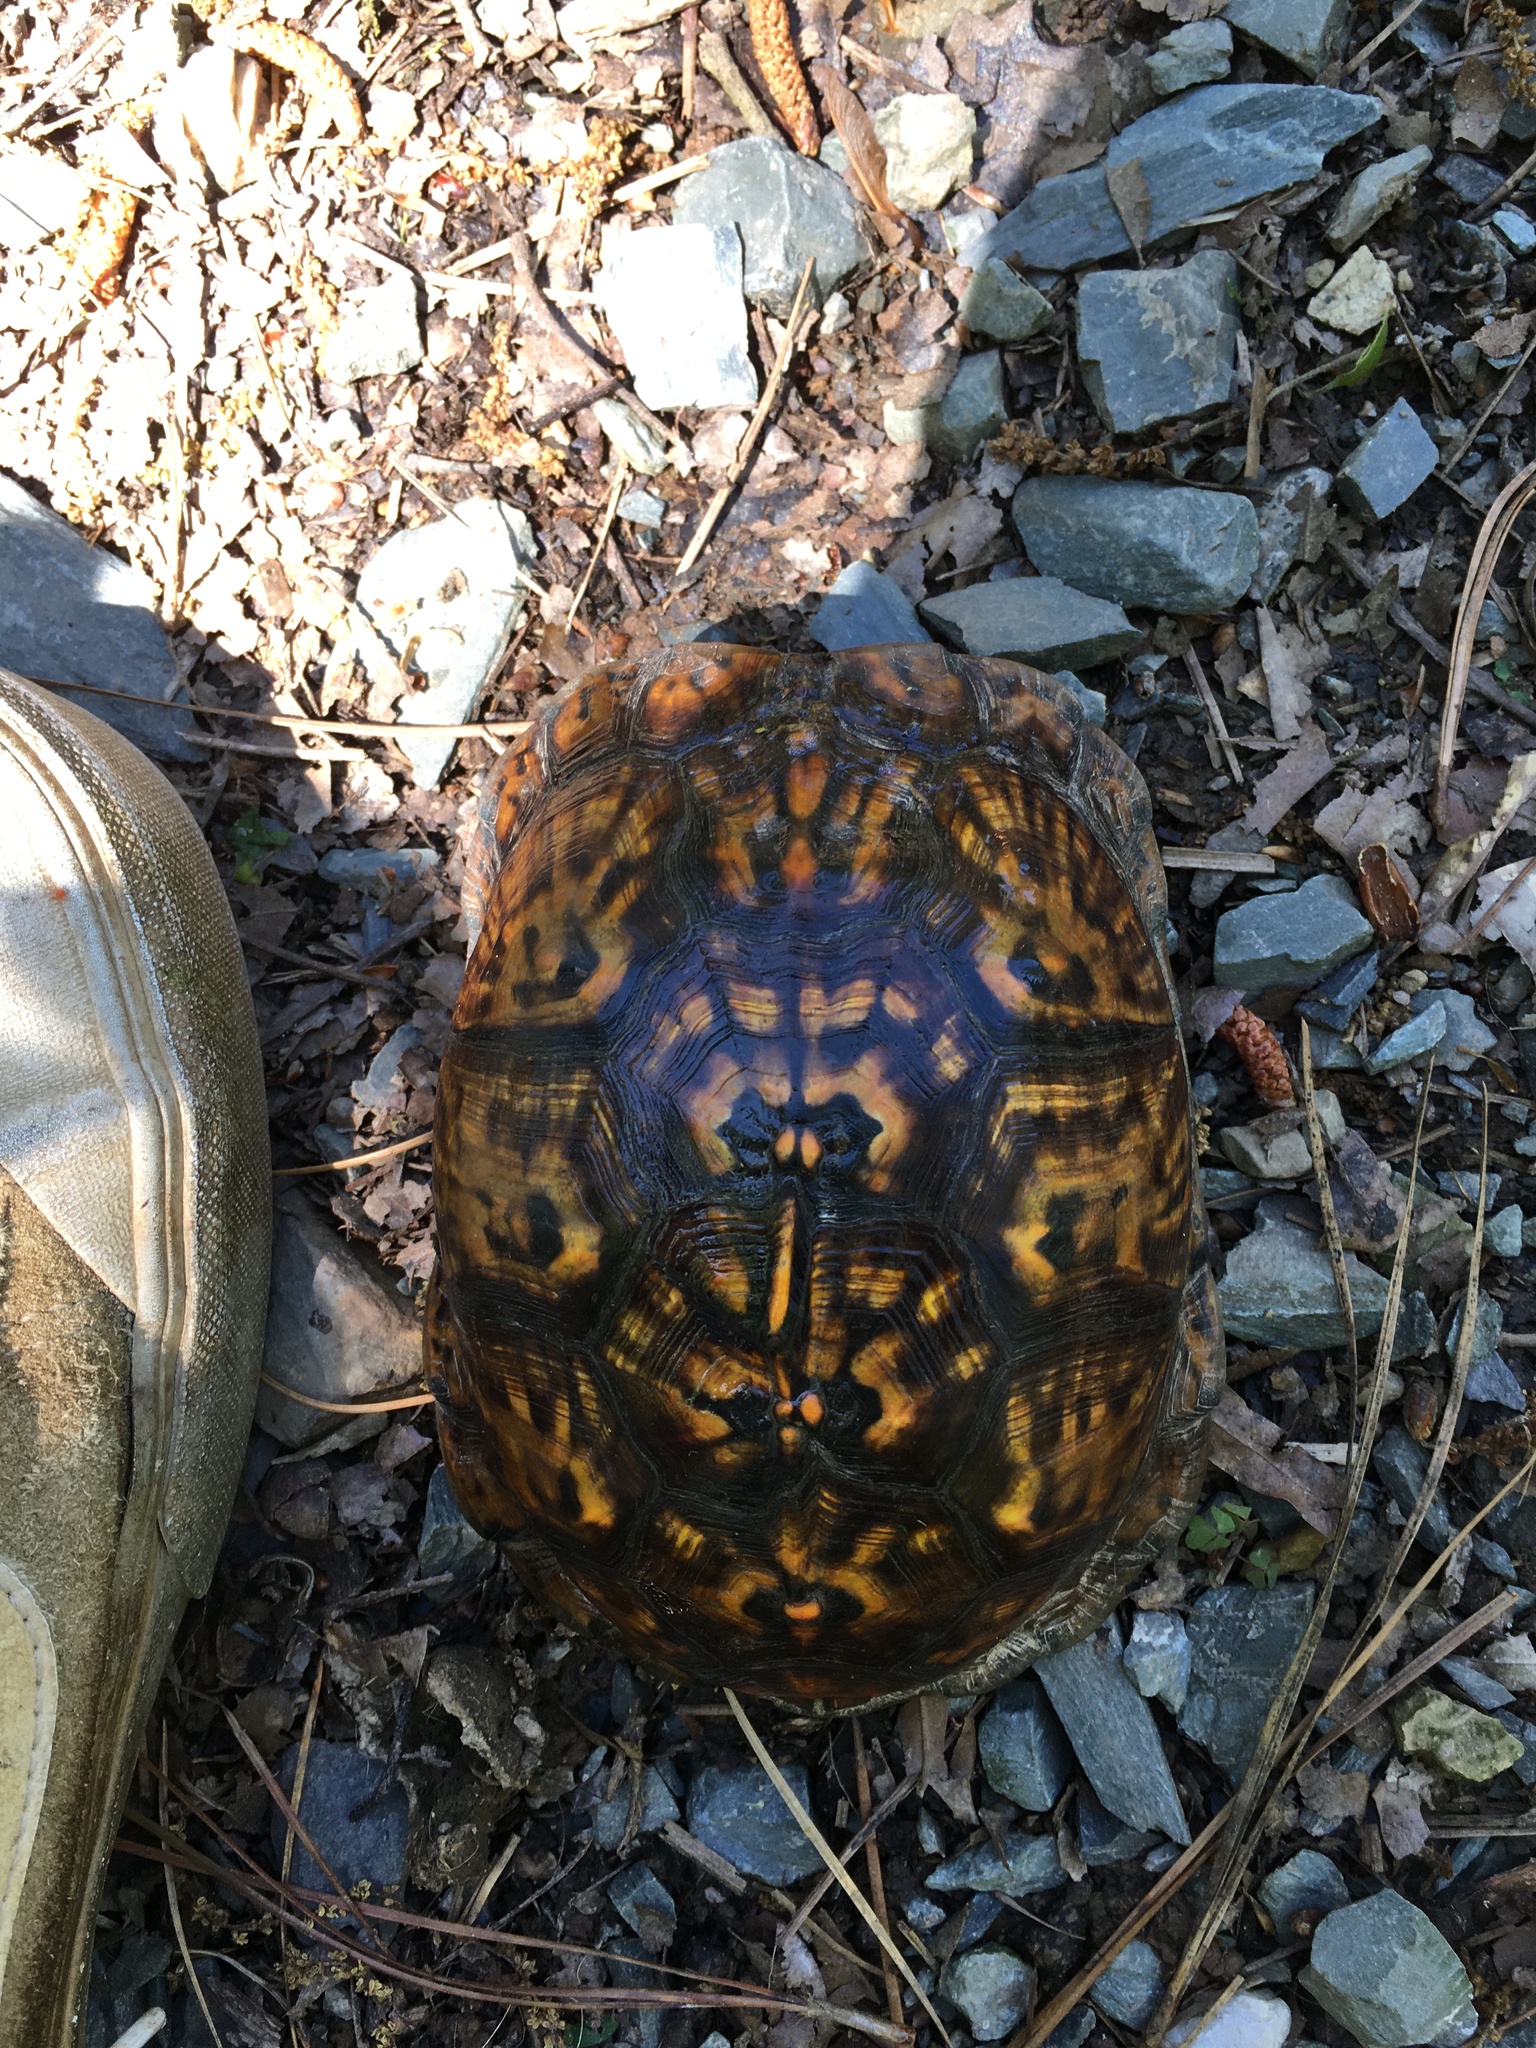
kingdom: Animalia
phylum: Chordata
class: Testudines
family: Emydidae
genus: Terrapene
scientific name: Terrapene carolina
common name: Common box turtle
